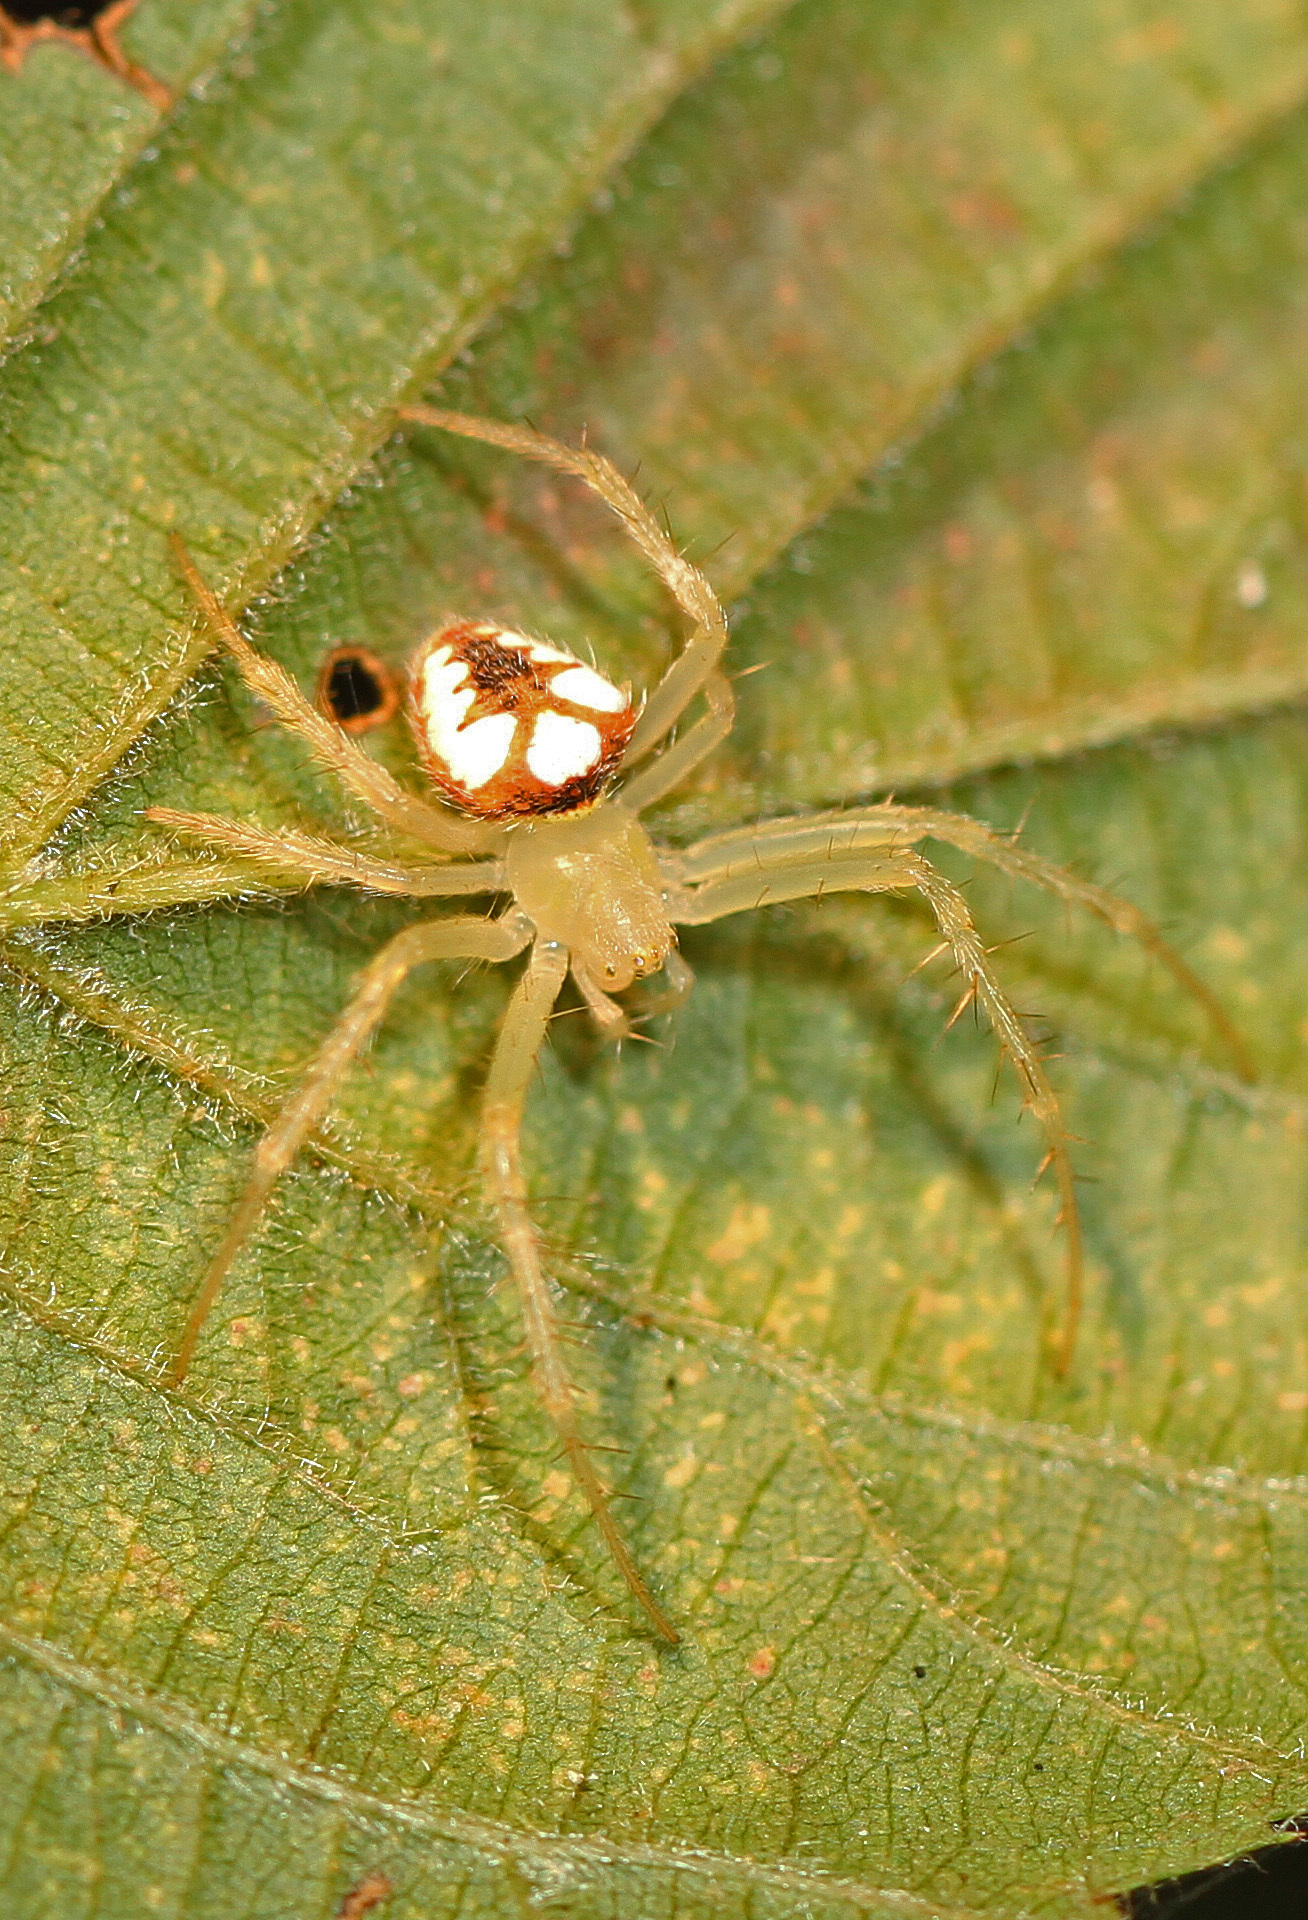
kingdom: Animalia
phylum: Arthropoda
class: Arachnida
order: Araneae
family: Araneidae
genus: Araneus
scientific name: Araneus guttulatus
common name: Red-backed orbweaver
